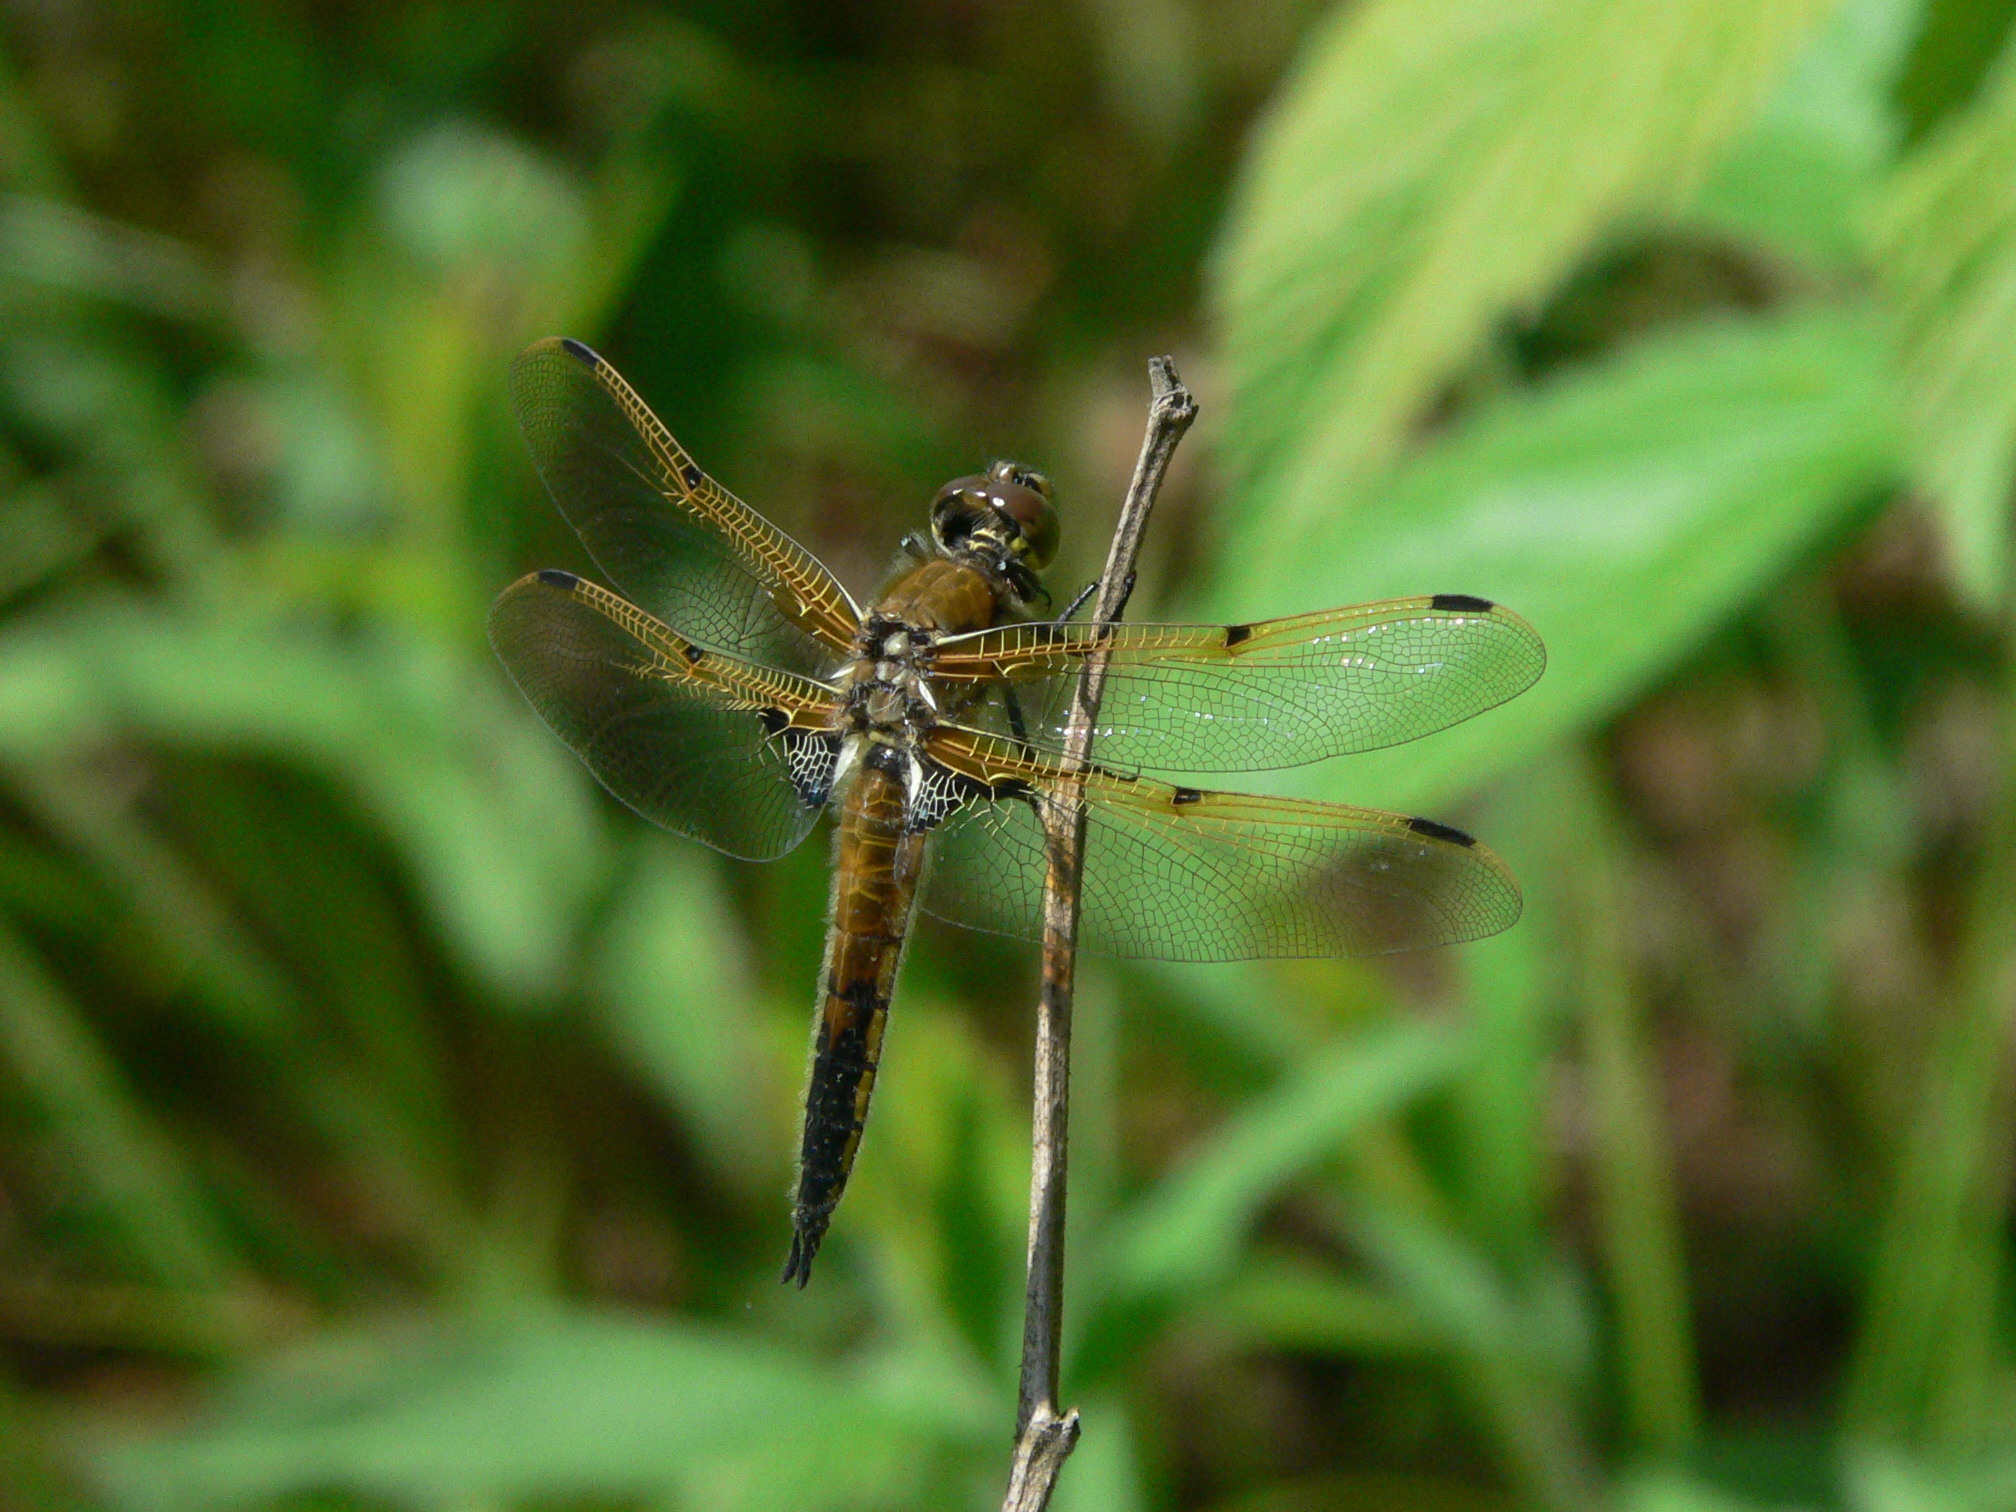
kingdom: Animalia
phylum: Arthropoda
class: Insecta
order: Odonata
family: Libellulidae
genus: Libellula
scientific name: Libellula quadrimaculata
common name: Four-spotted chaser
